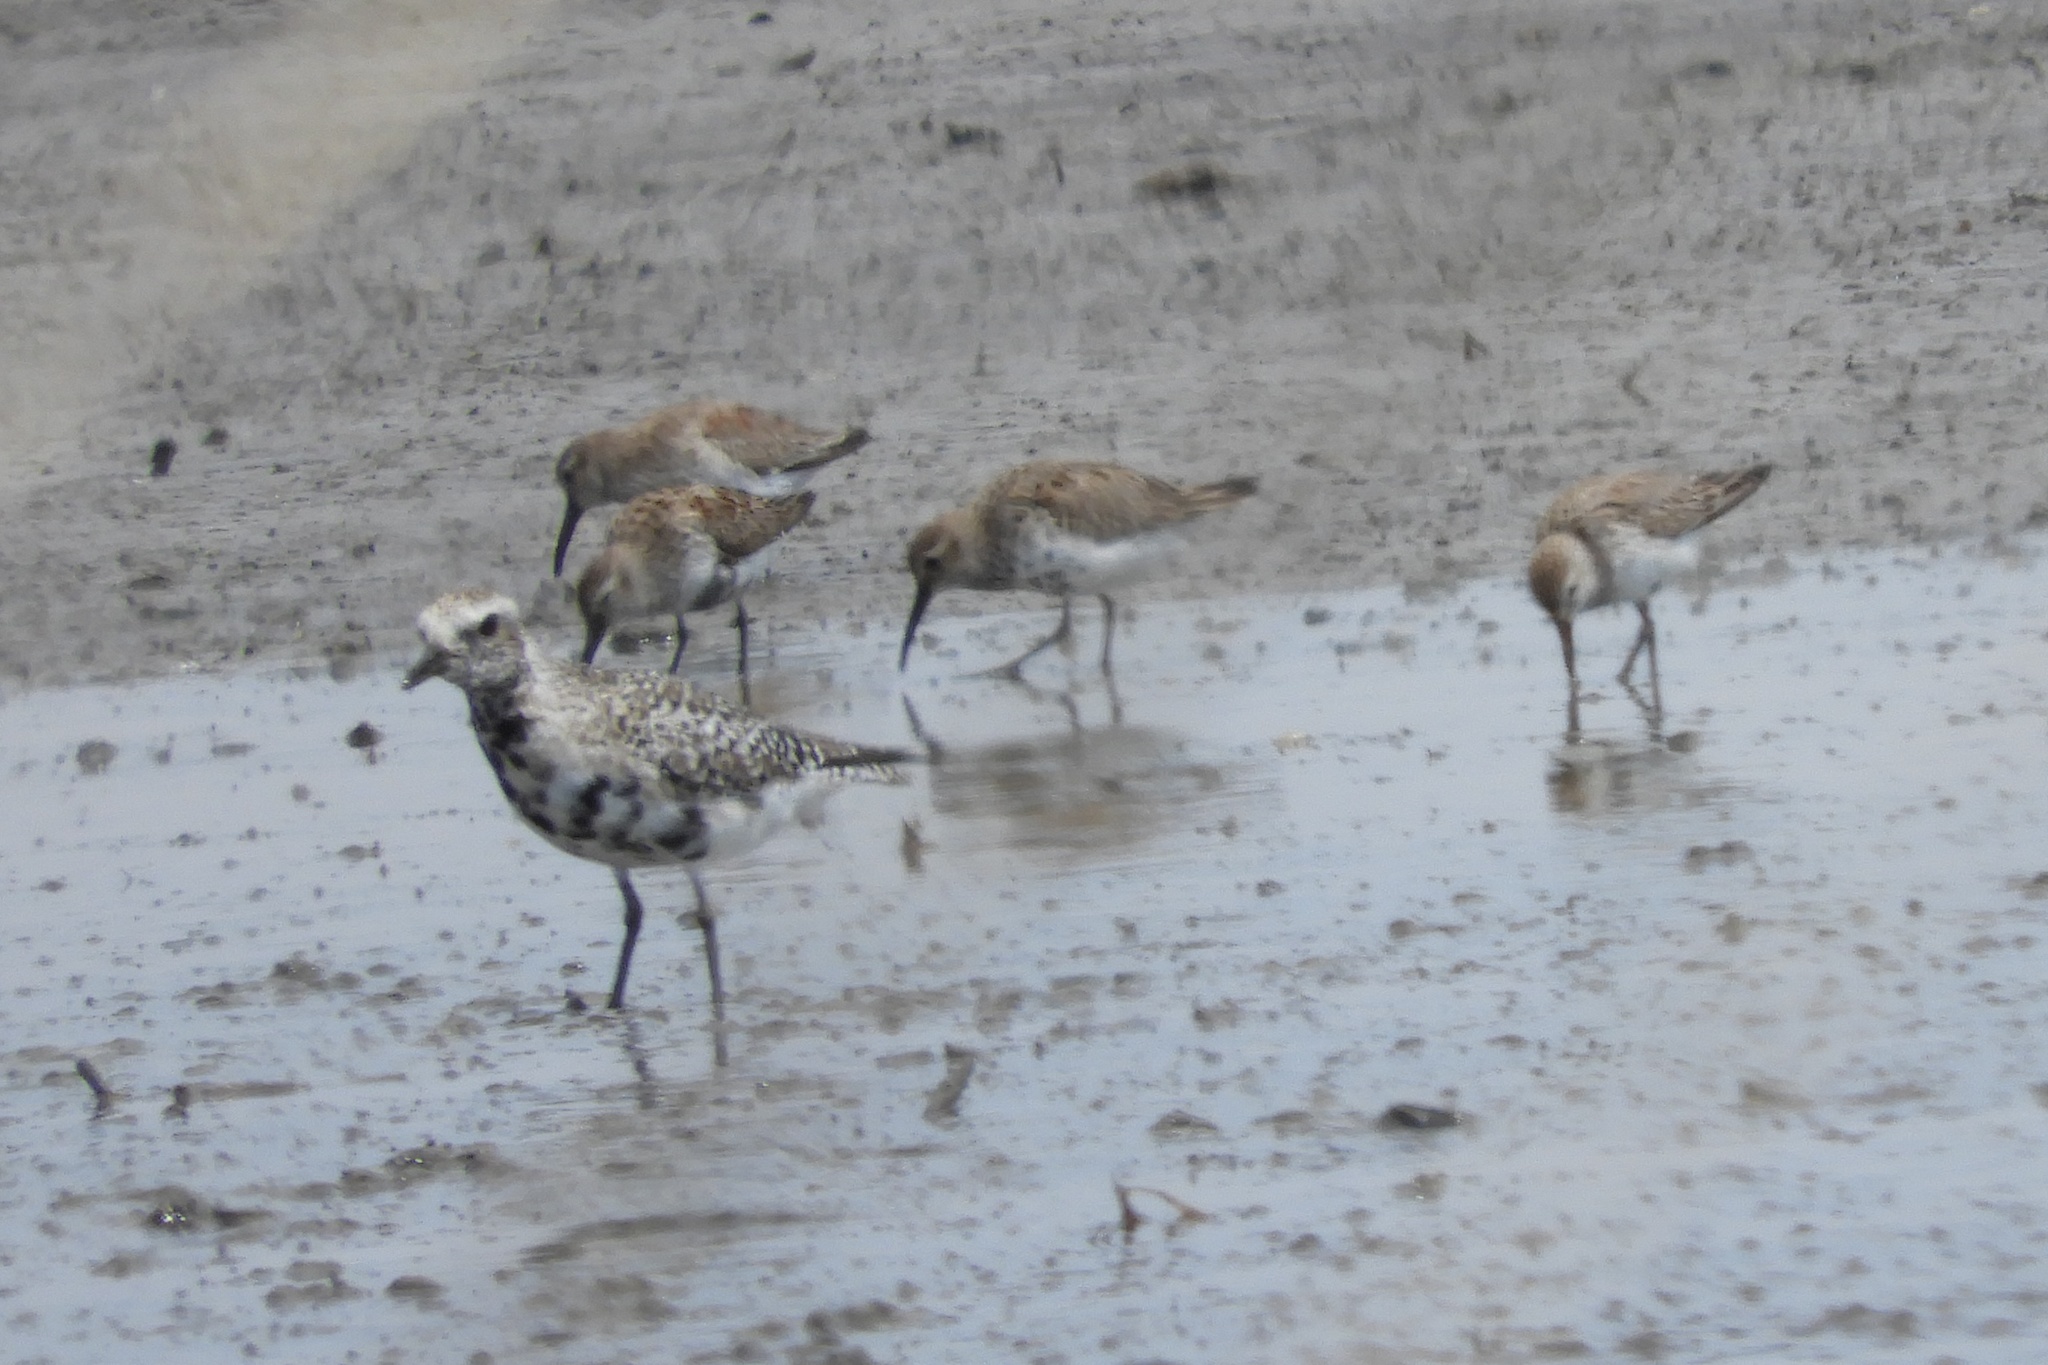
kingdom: Animalia
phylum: Chordata
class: Aves
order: Charadriiformes
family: Charadriidae
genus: Pluvialis
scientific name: Pluvialis squatarola
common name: Grey plover
